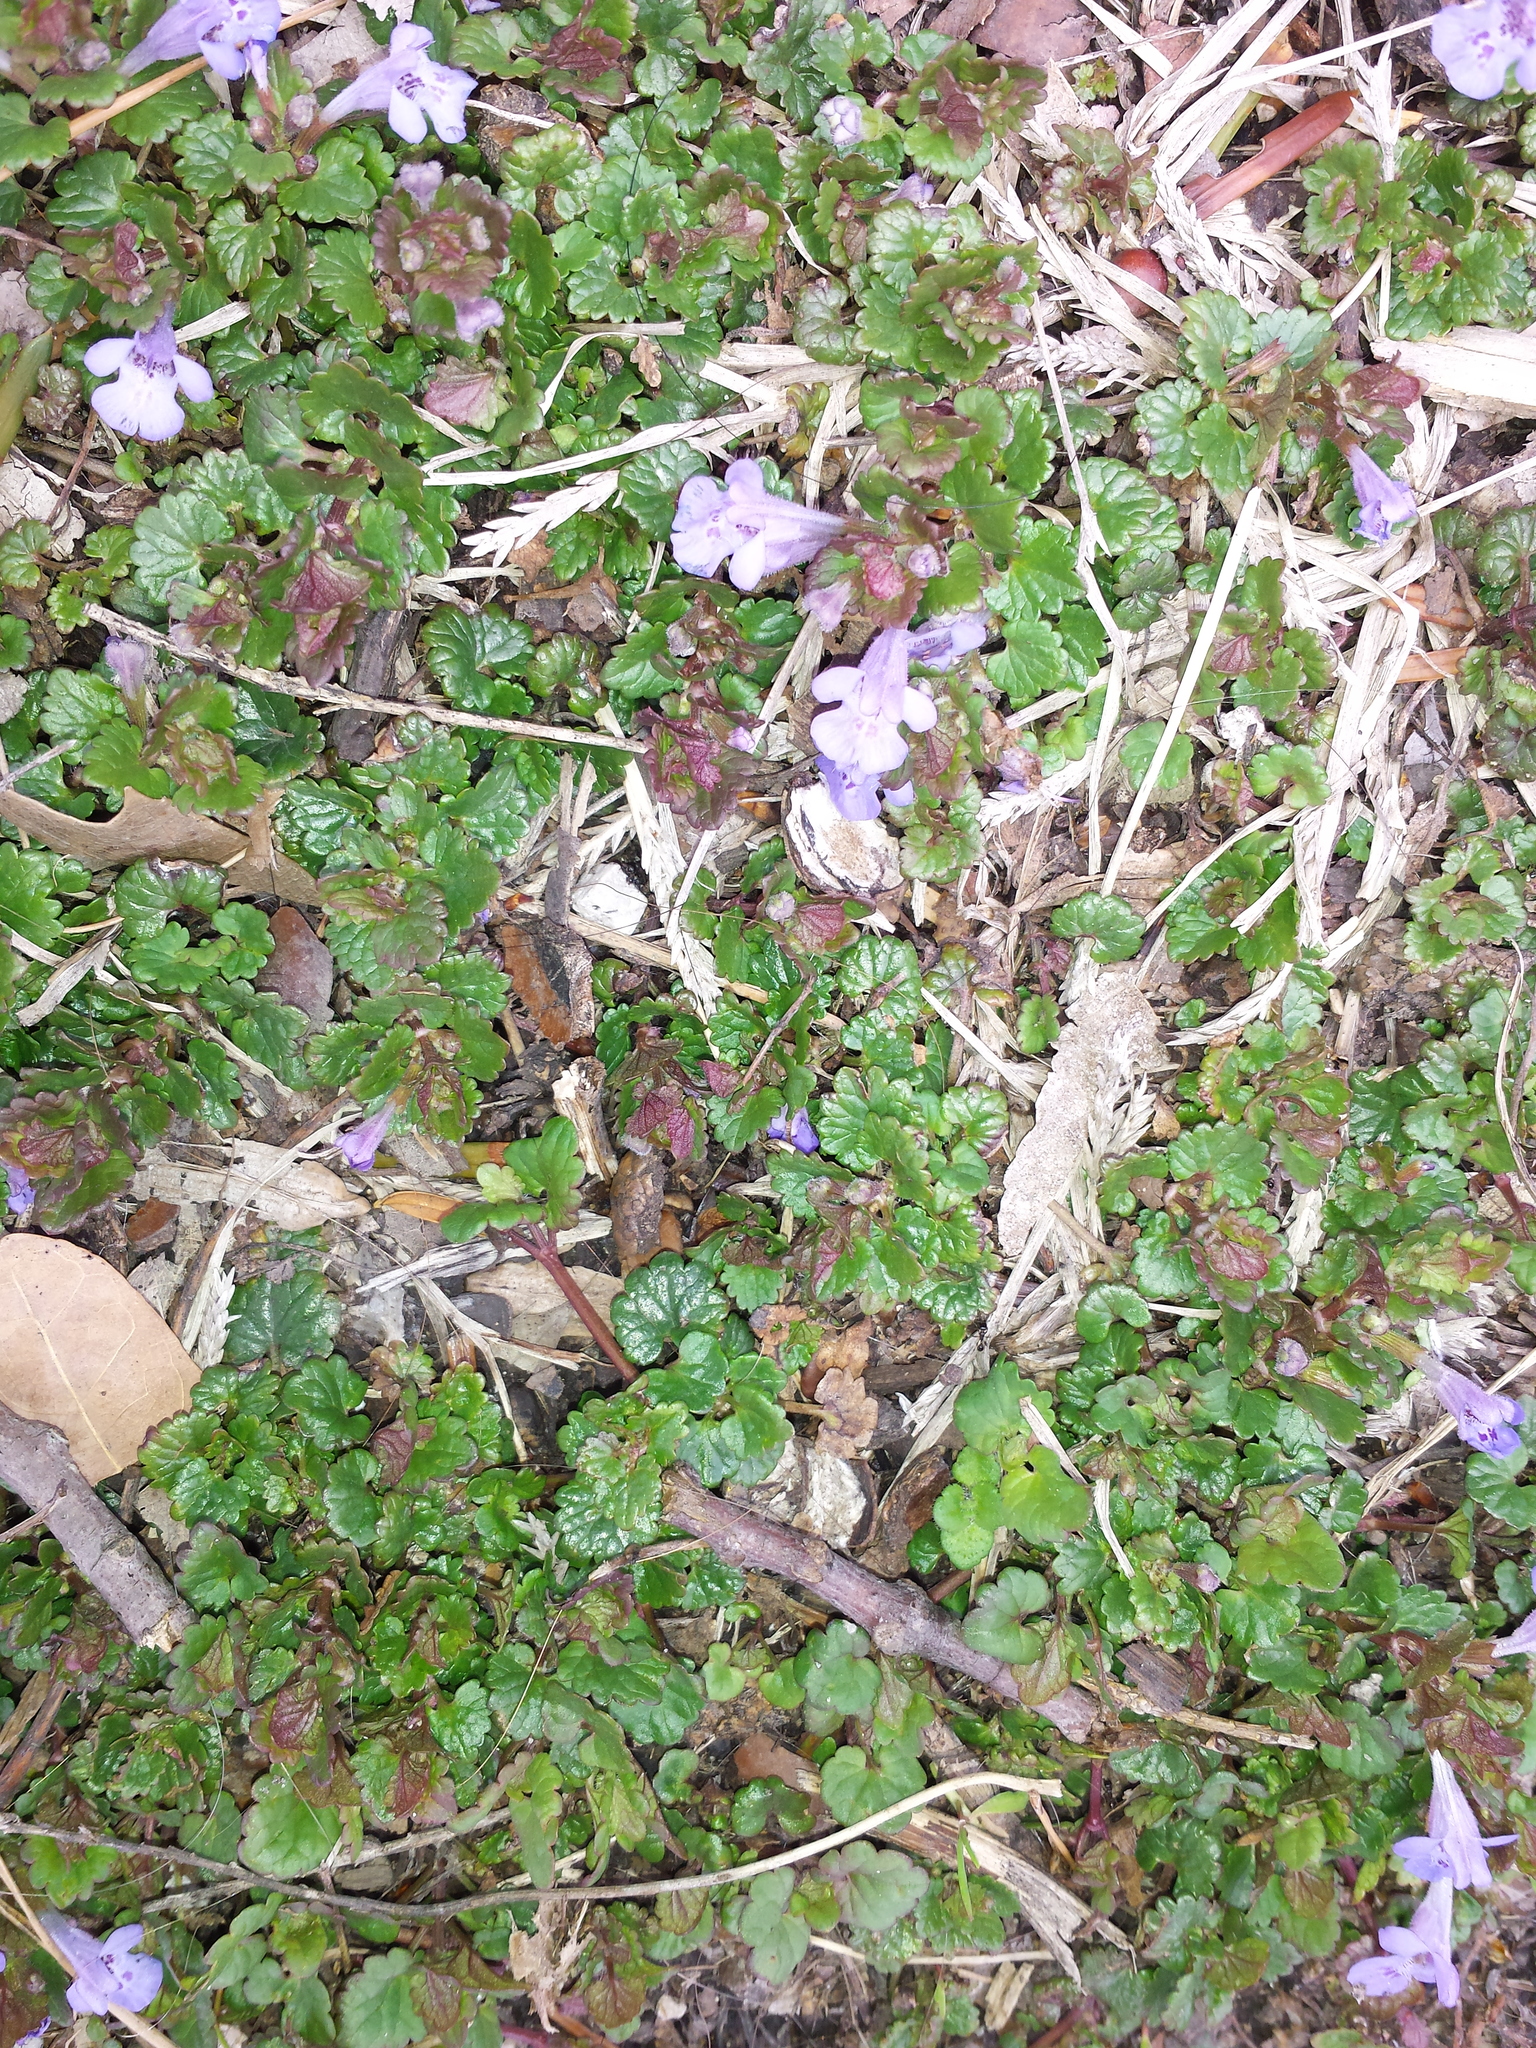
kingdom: Plantae
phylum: Tracheophyta
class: Magnoliopsida
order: Lamiales
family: Lamiaceae
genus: Glechoma
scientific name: Glechoma hederacea
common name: Ground ivy
